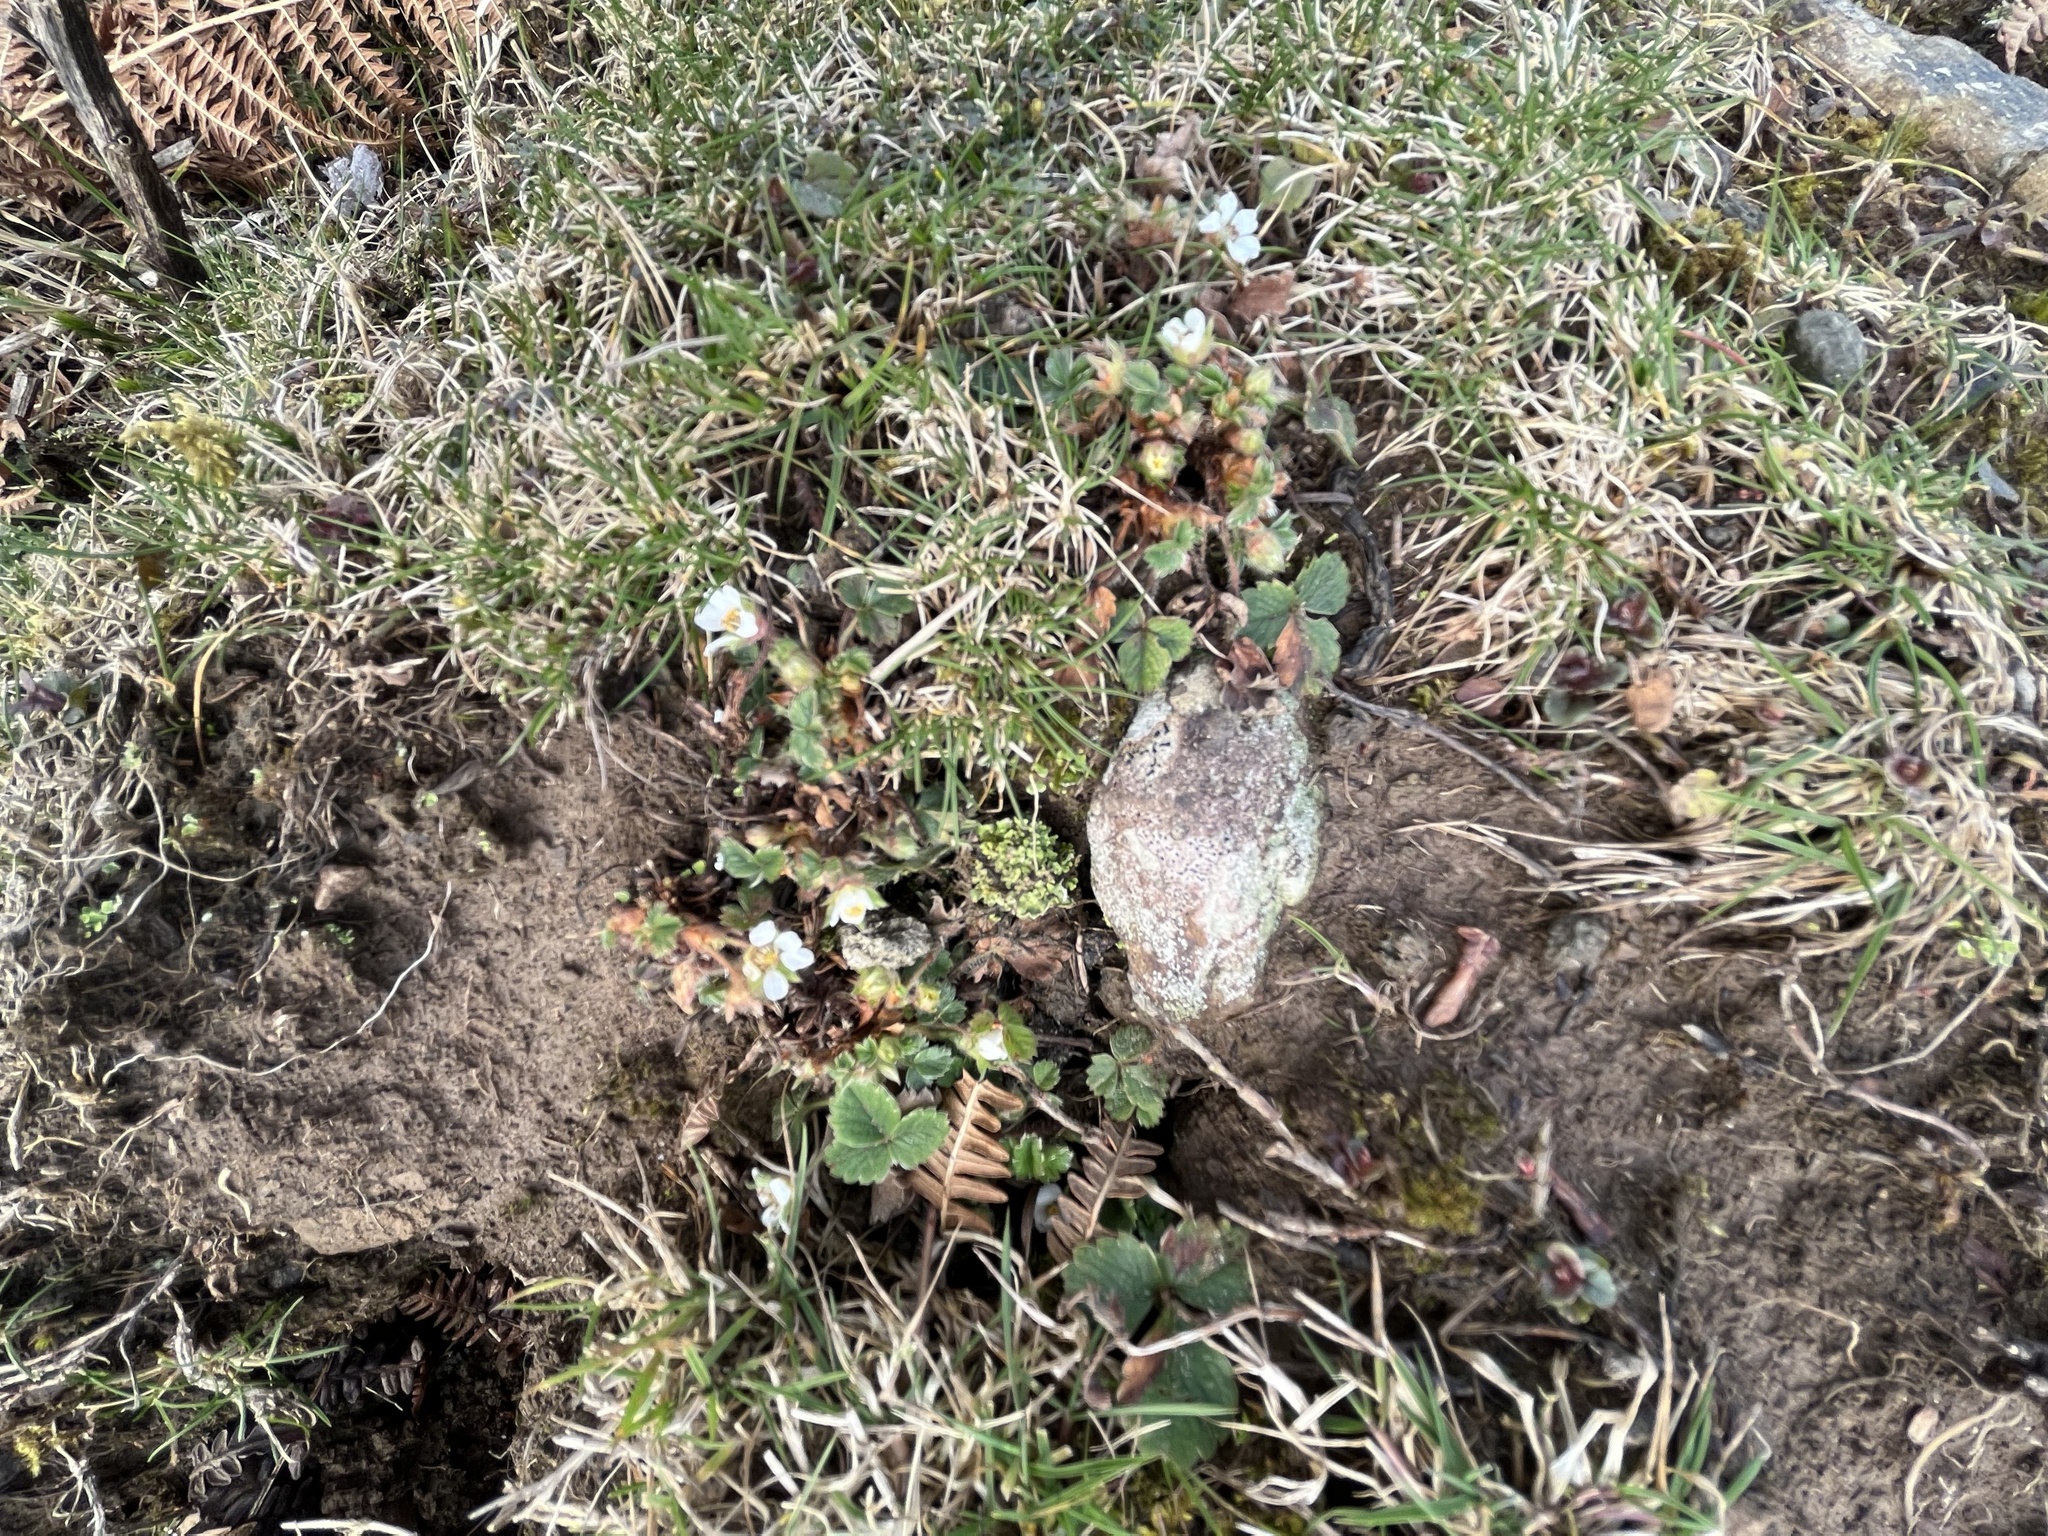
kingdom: Plantae
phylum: Tracheophyta
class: Magnoliopsida
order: Rosales
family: Rosaceae
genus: Potentilla
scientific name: Potentilla sterilis
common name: Barren strawberry
